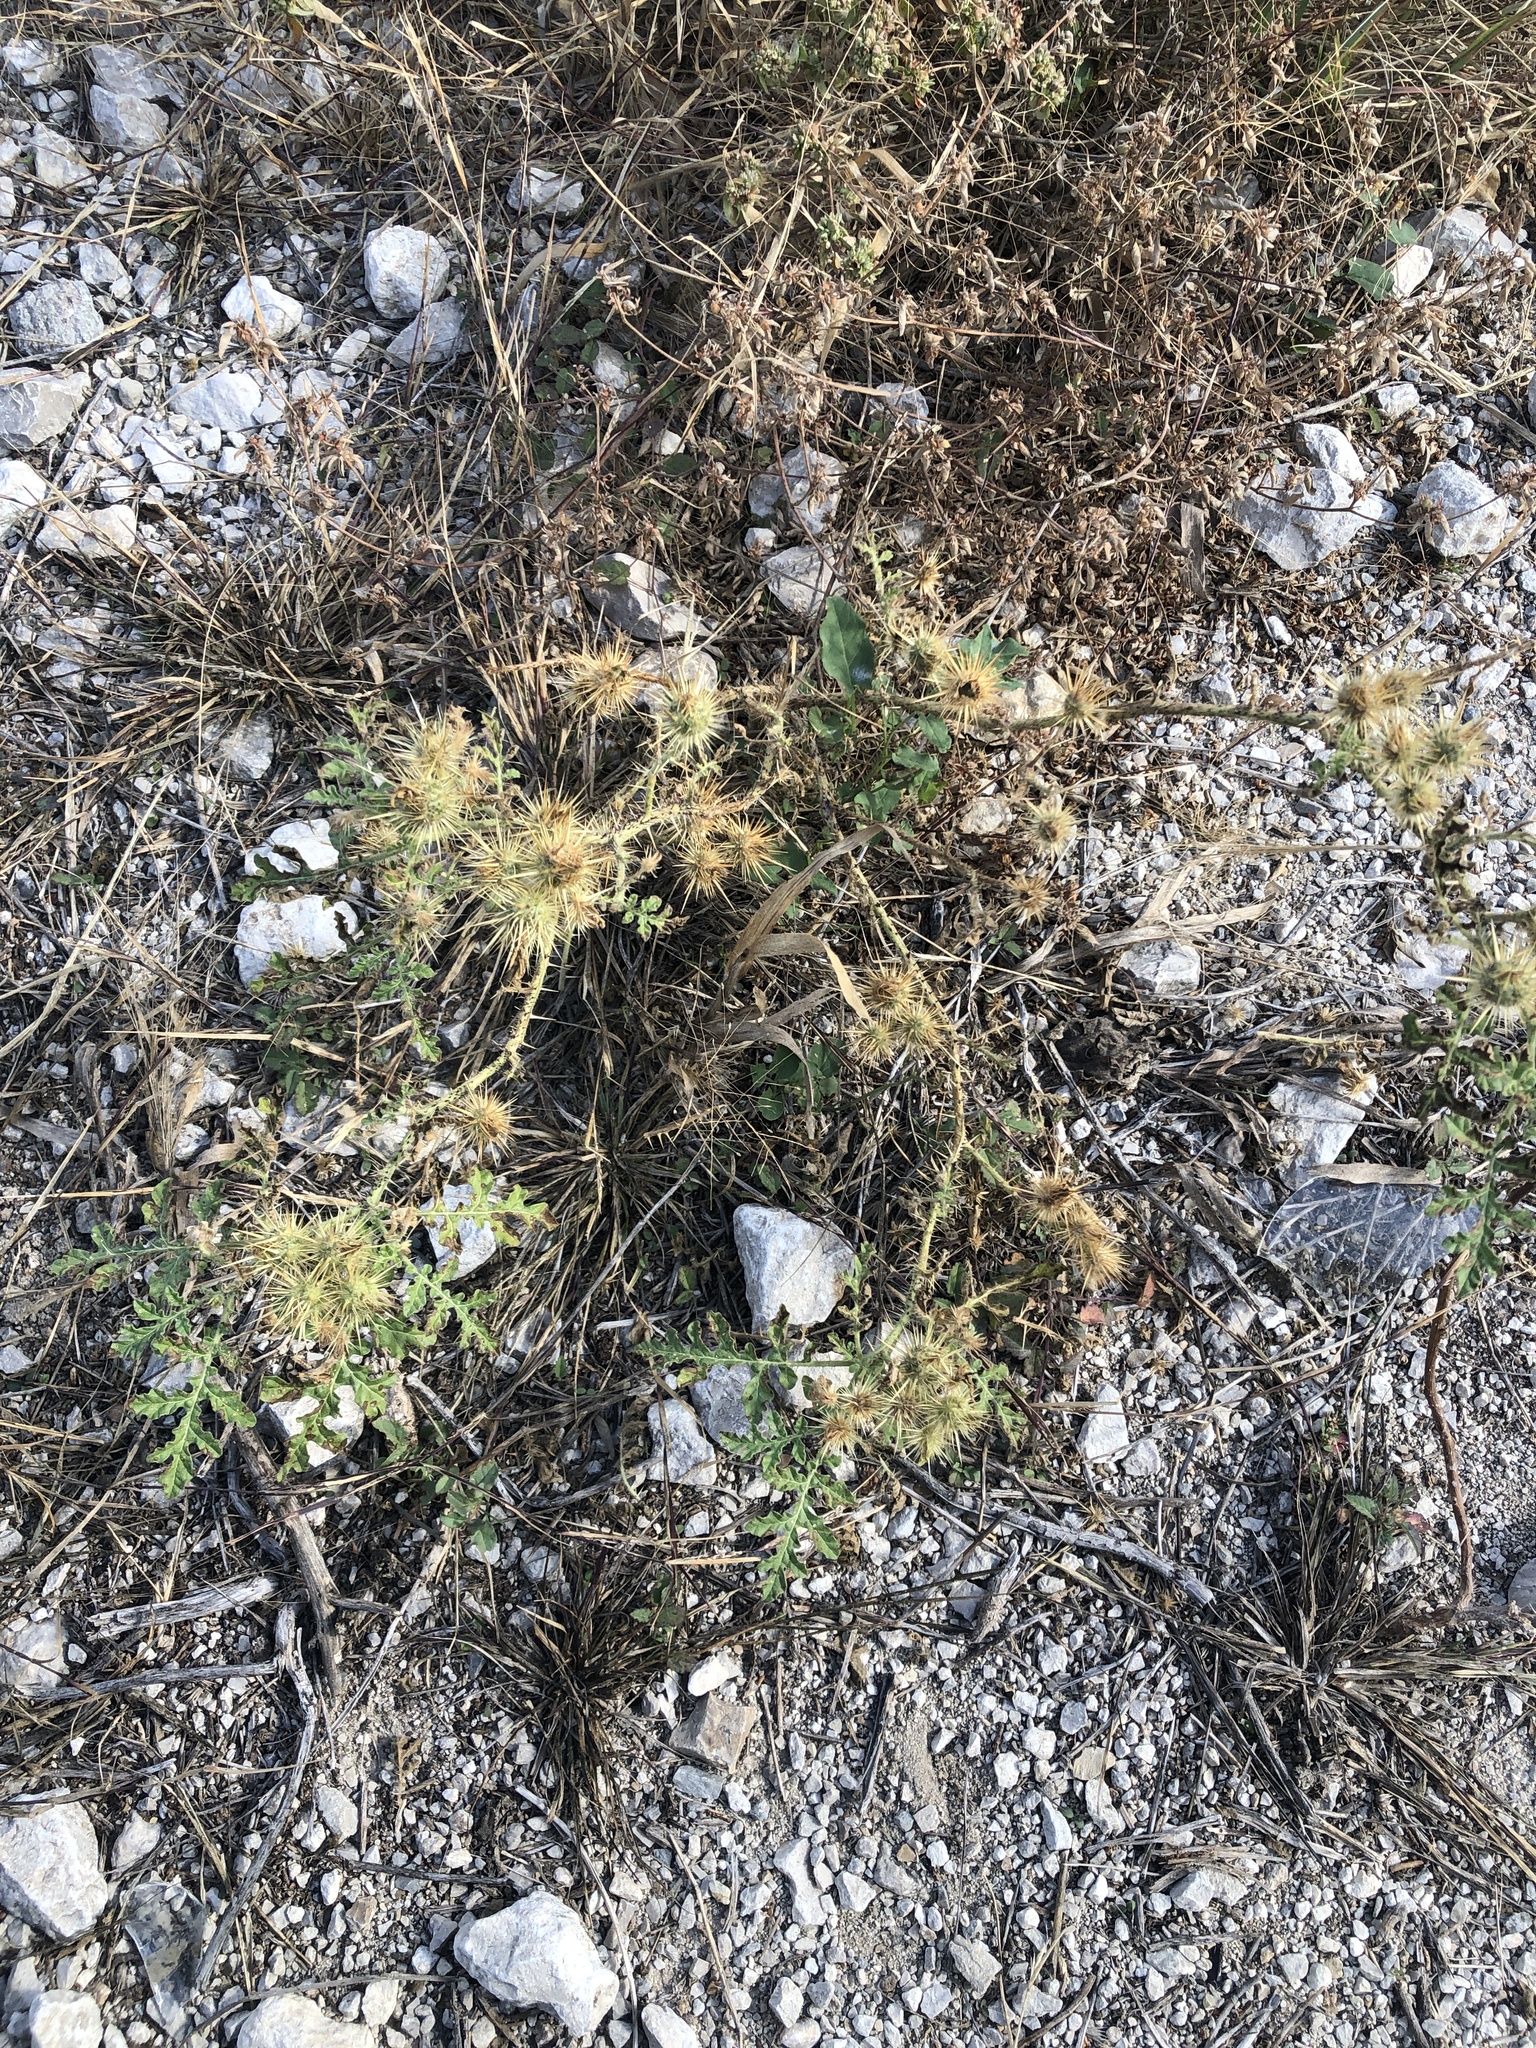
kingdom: Plantae
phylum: Tracheophyta
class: Magnoliopsida
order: Solanales
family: Solanaceae
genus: Solanum
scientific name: Solanum angustifolium
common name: Buffalobur nightshade
